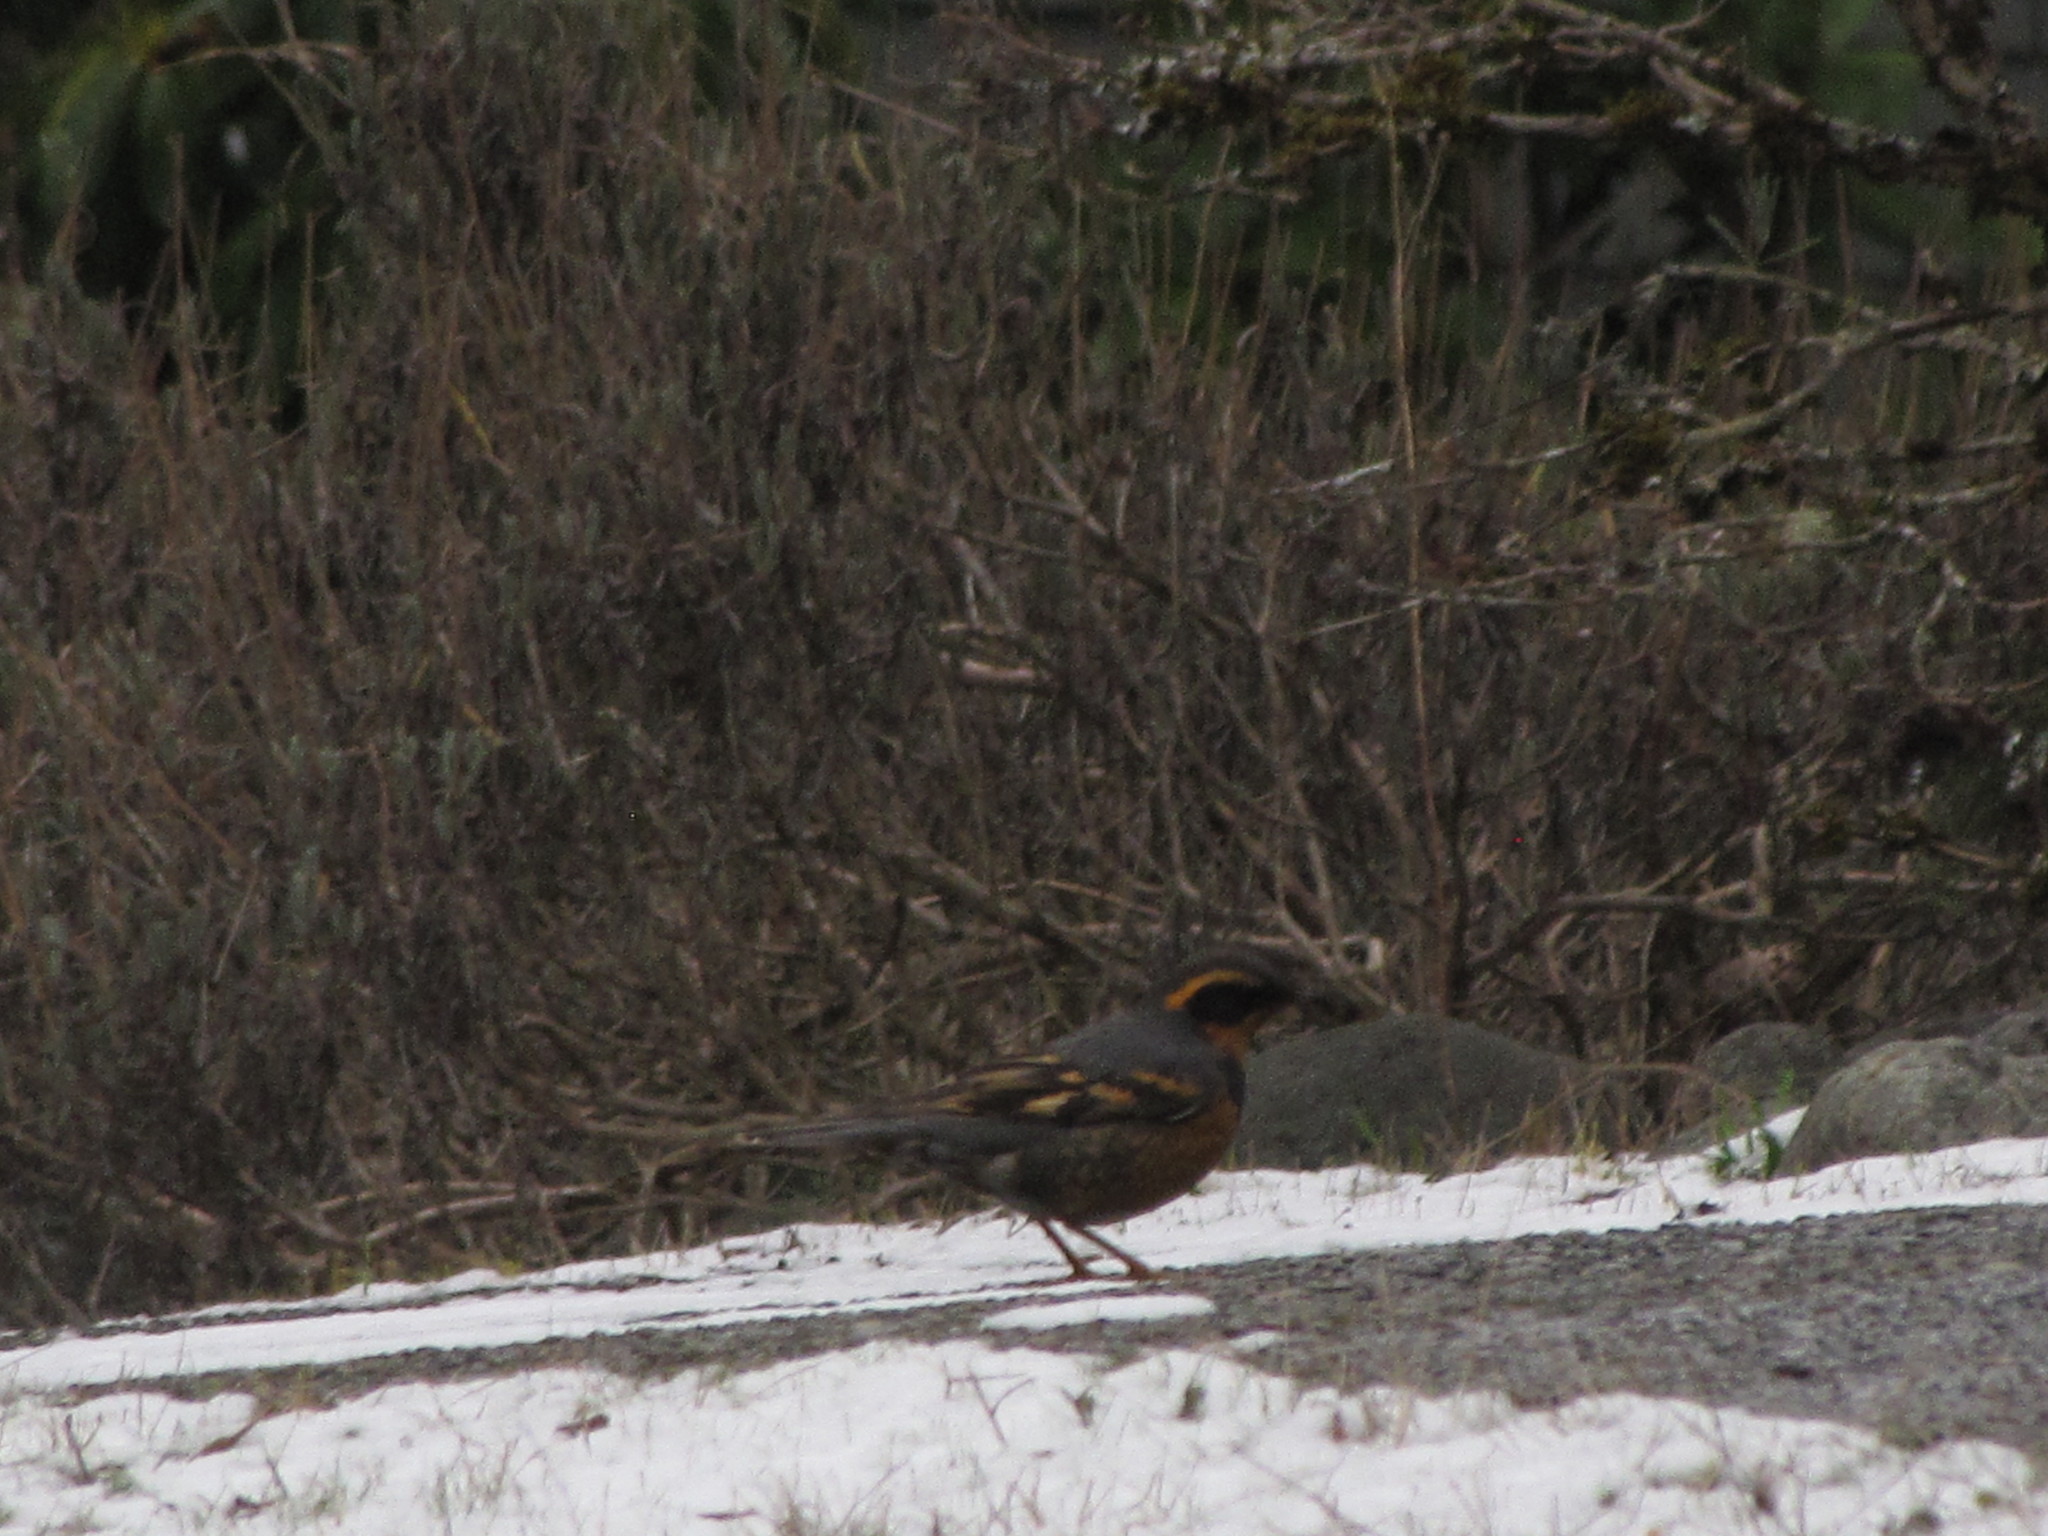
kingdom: Animalia
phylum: Chordata
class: Aves
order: Passeriformes
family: Turdidae
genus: Ixoreus
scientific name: Ixoreus naevius
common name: Varied thrush
